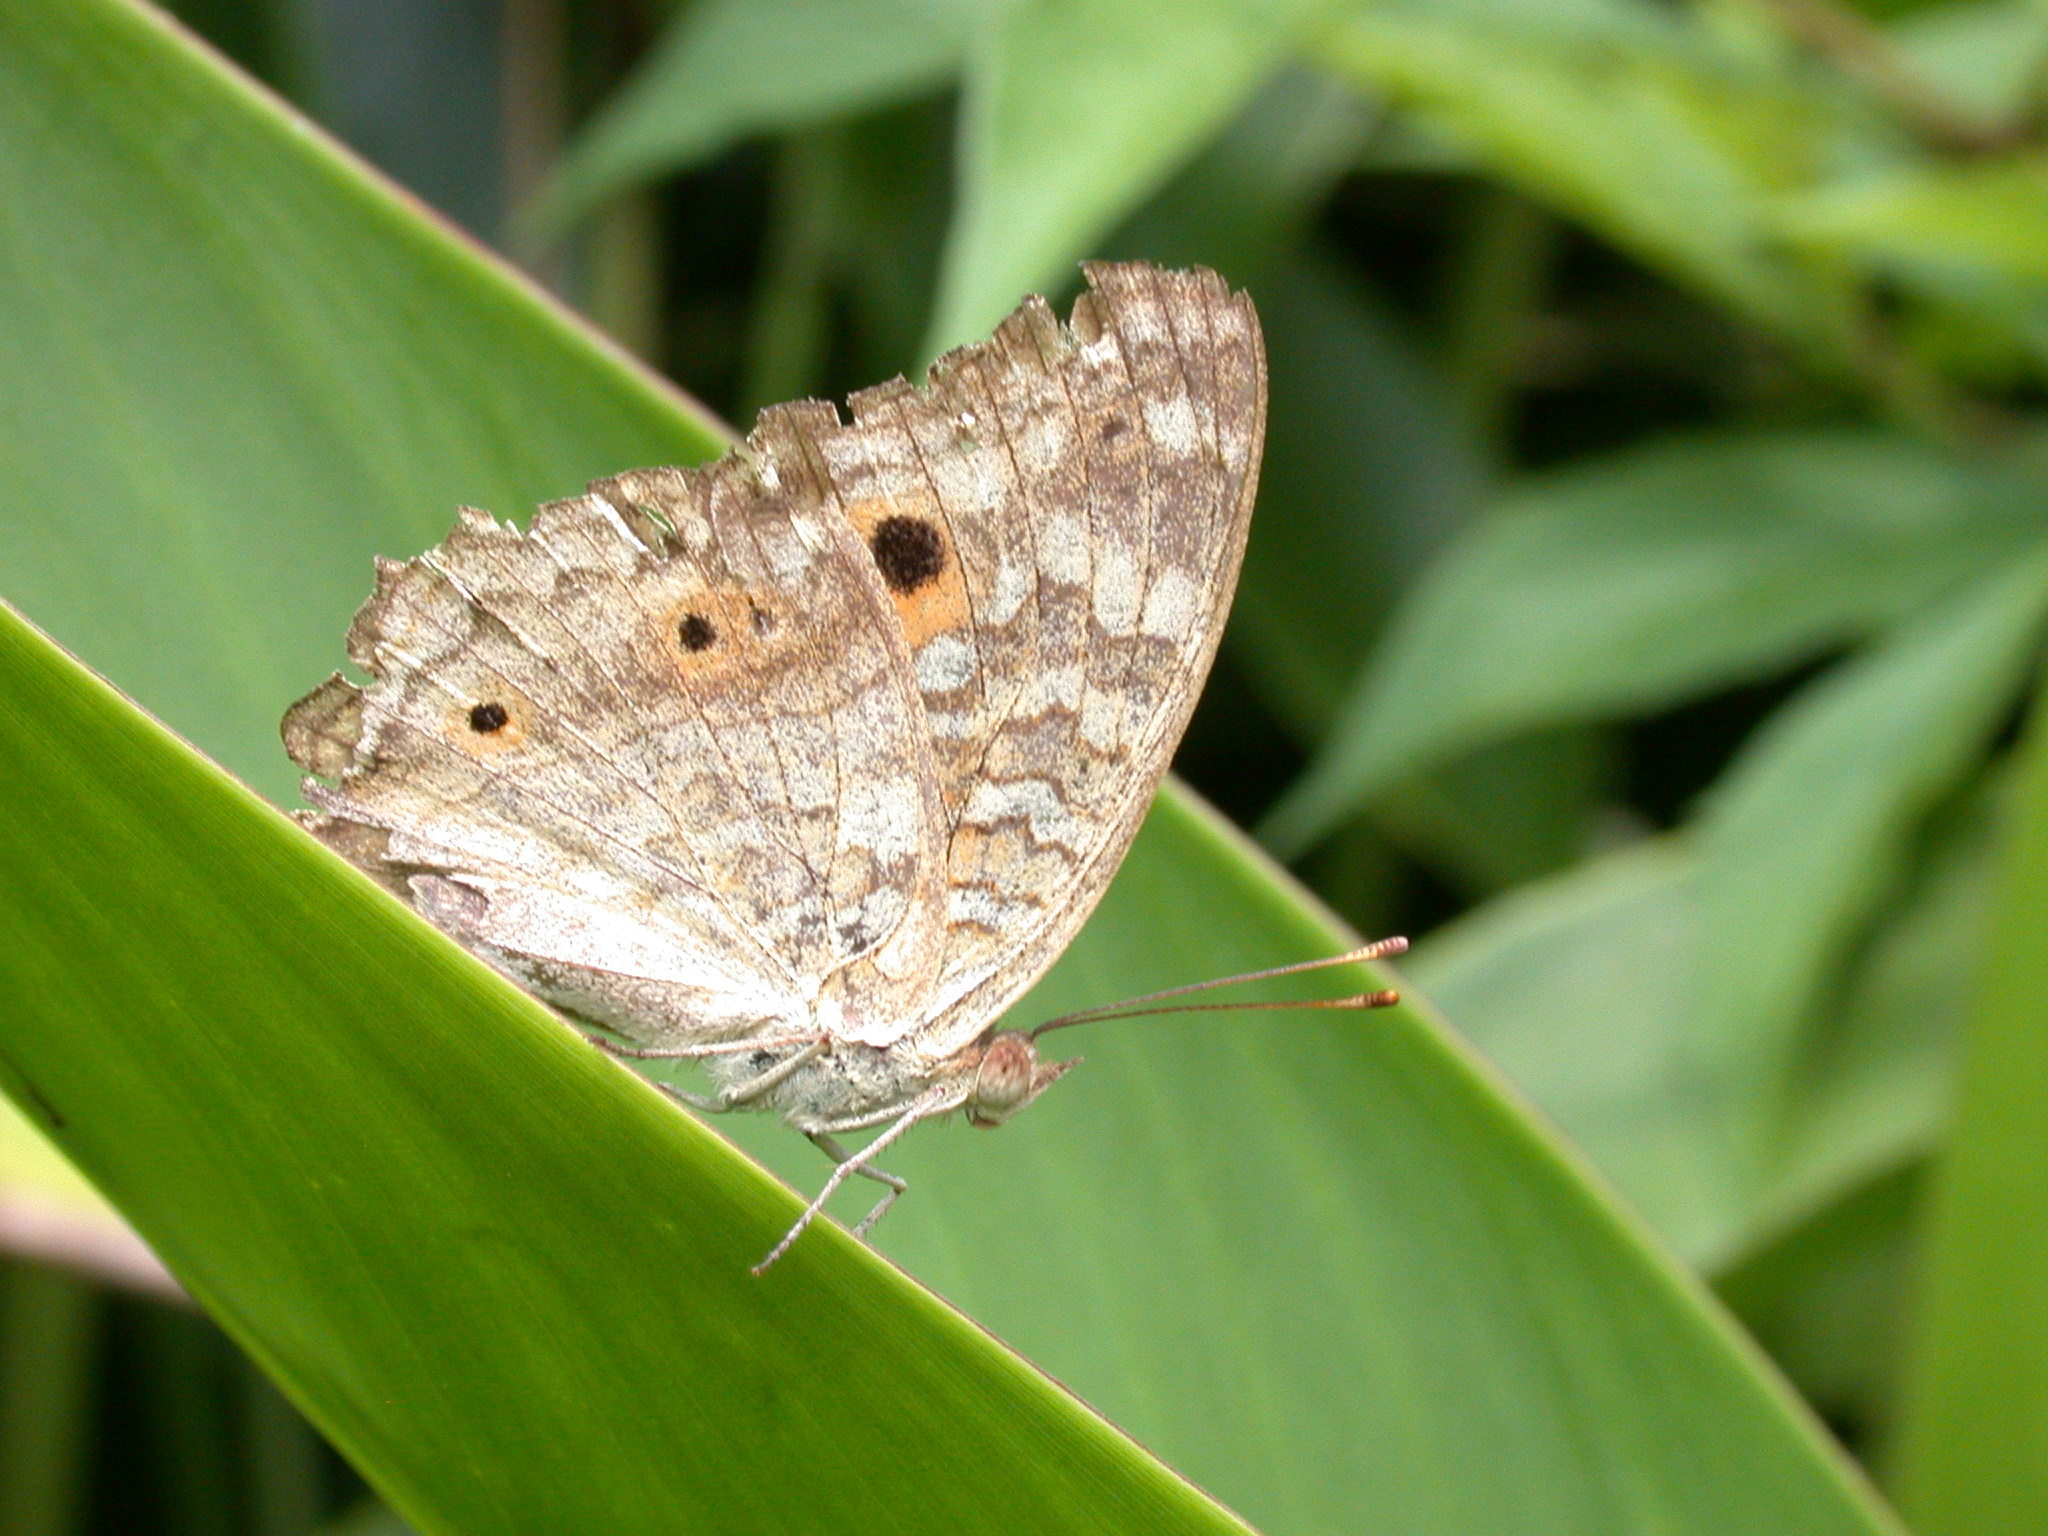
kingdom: Animalia
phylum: Arthropoda
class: Insecta
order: Lepidoptera
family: Nymphalidae
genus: Junonia
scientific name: Junonia lemonias
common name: Lemon pansy
